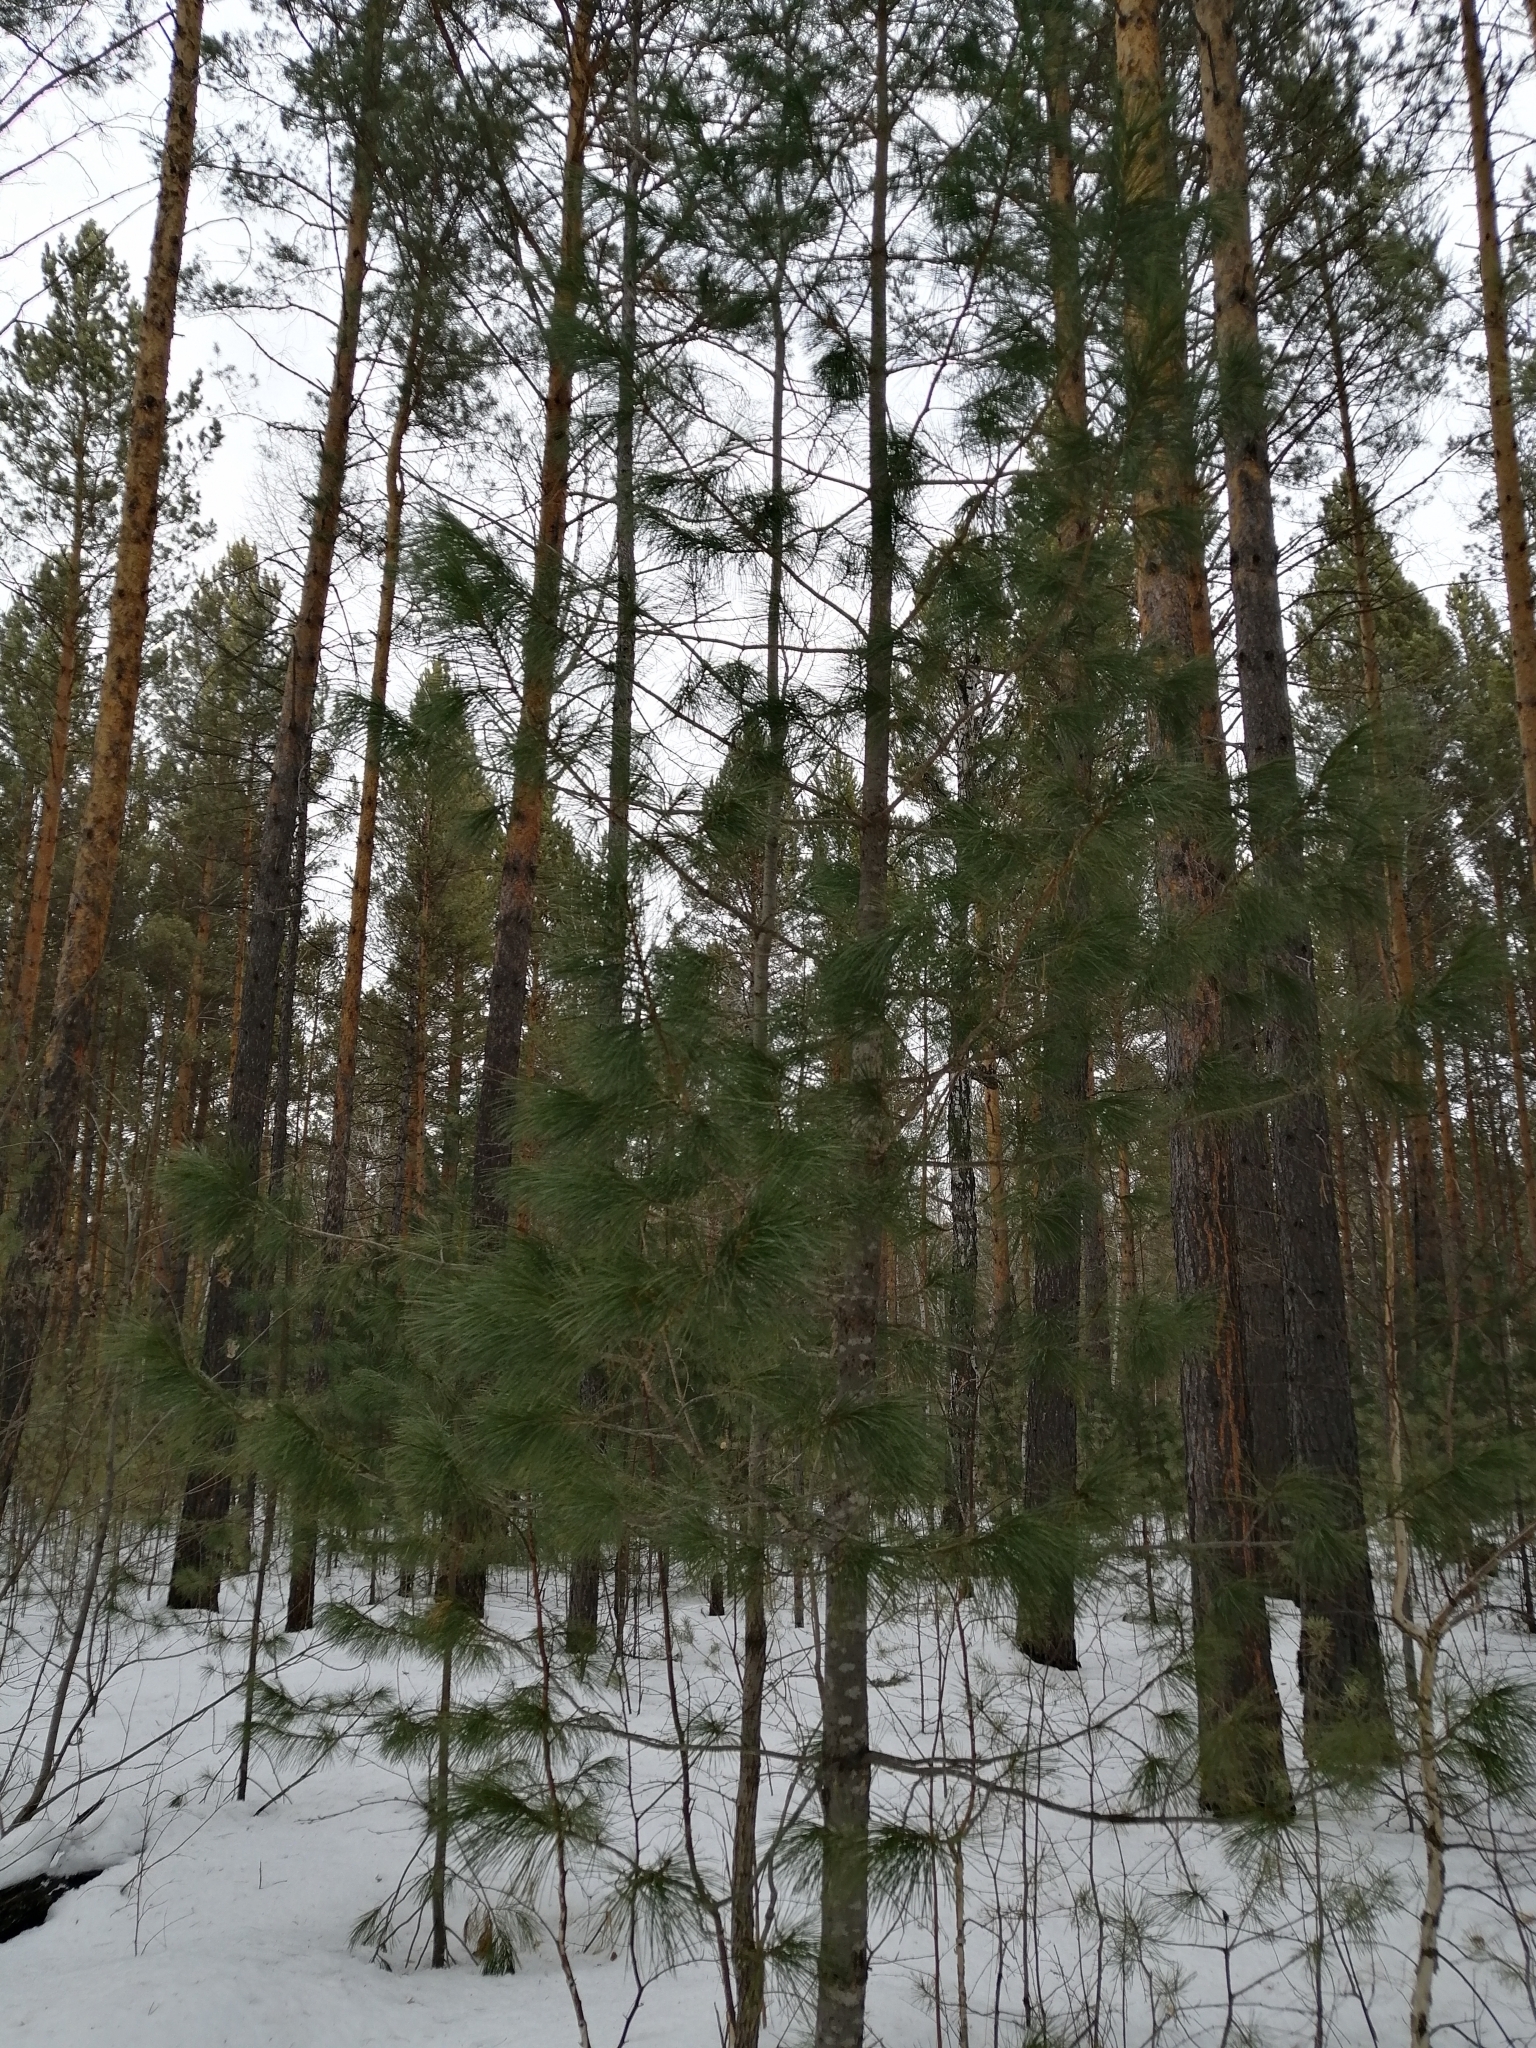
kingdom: Plantae
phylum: Tracheophyta
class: Pinopsida
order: Pinales
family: Pinaceae
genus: Pinus
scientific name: Pinus sibirica
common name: Siberian pine
